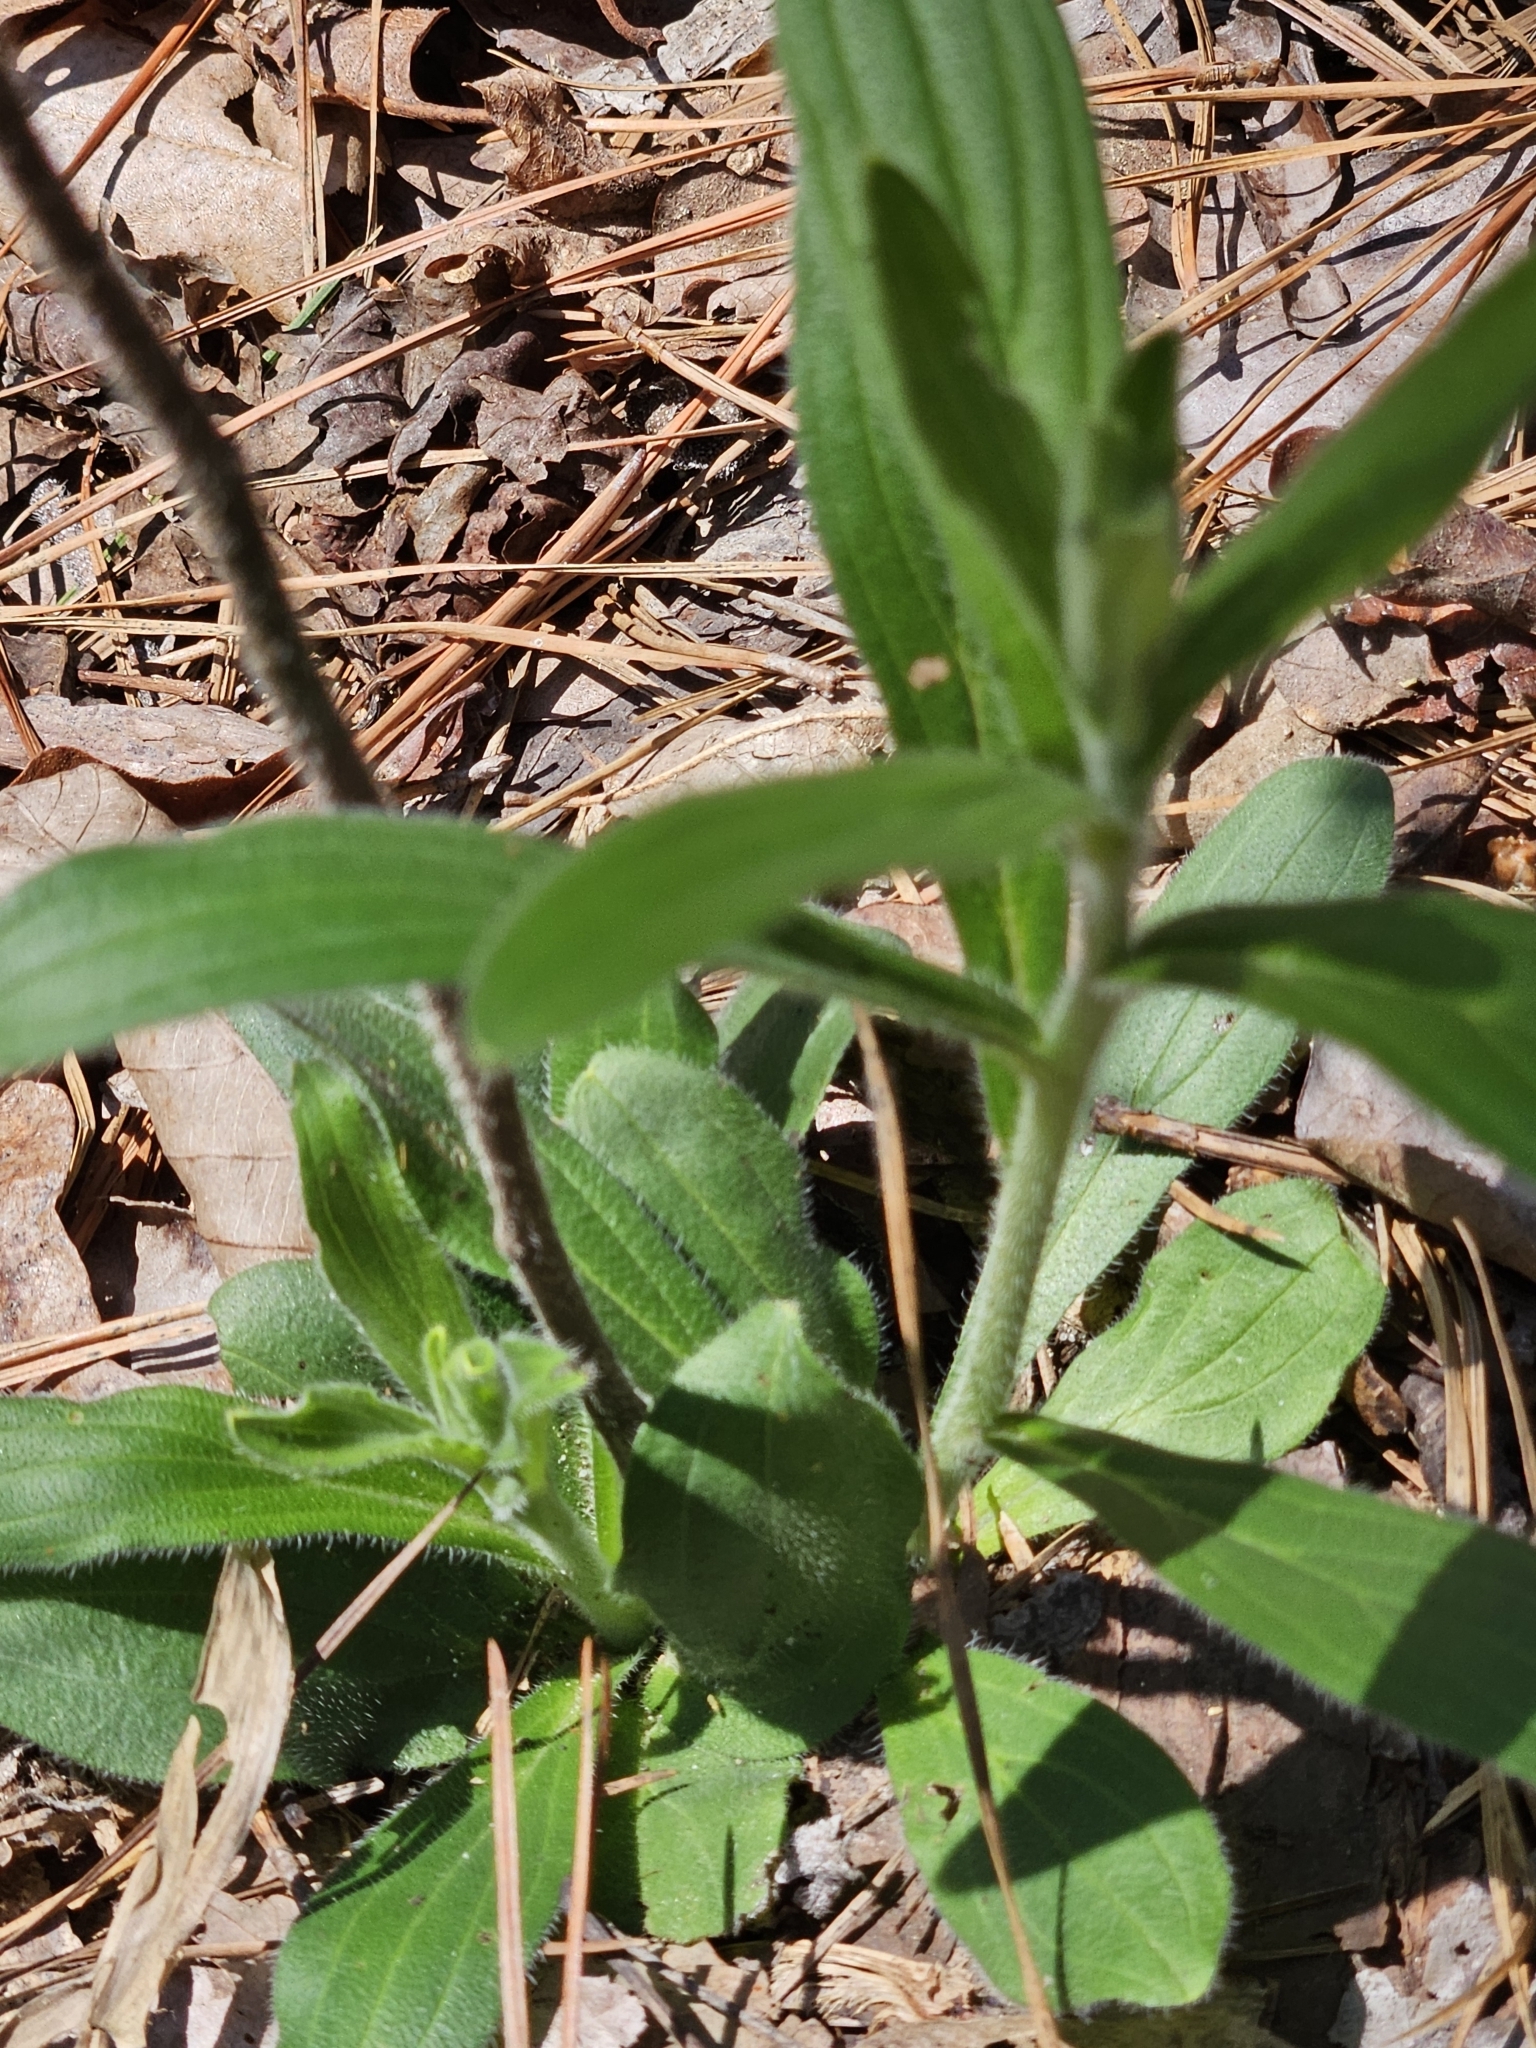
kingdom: Plantae
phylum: Tracheophyta
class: Magnoliopsida
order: Boraginales
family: Boraginaceae
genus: Lithospermum
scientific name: Lithospermum tuberosum
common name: Southern stoneseed
